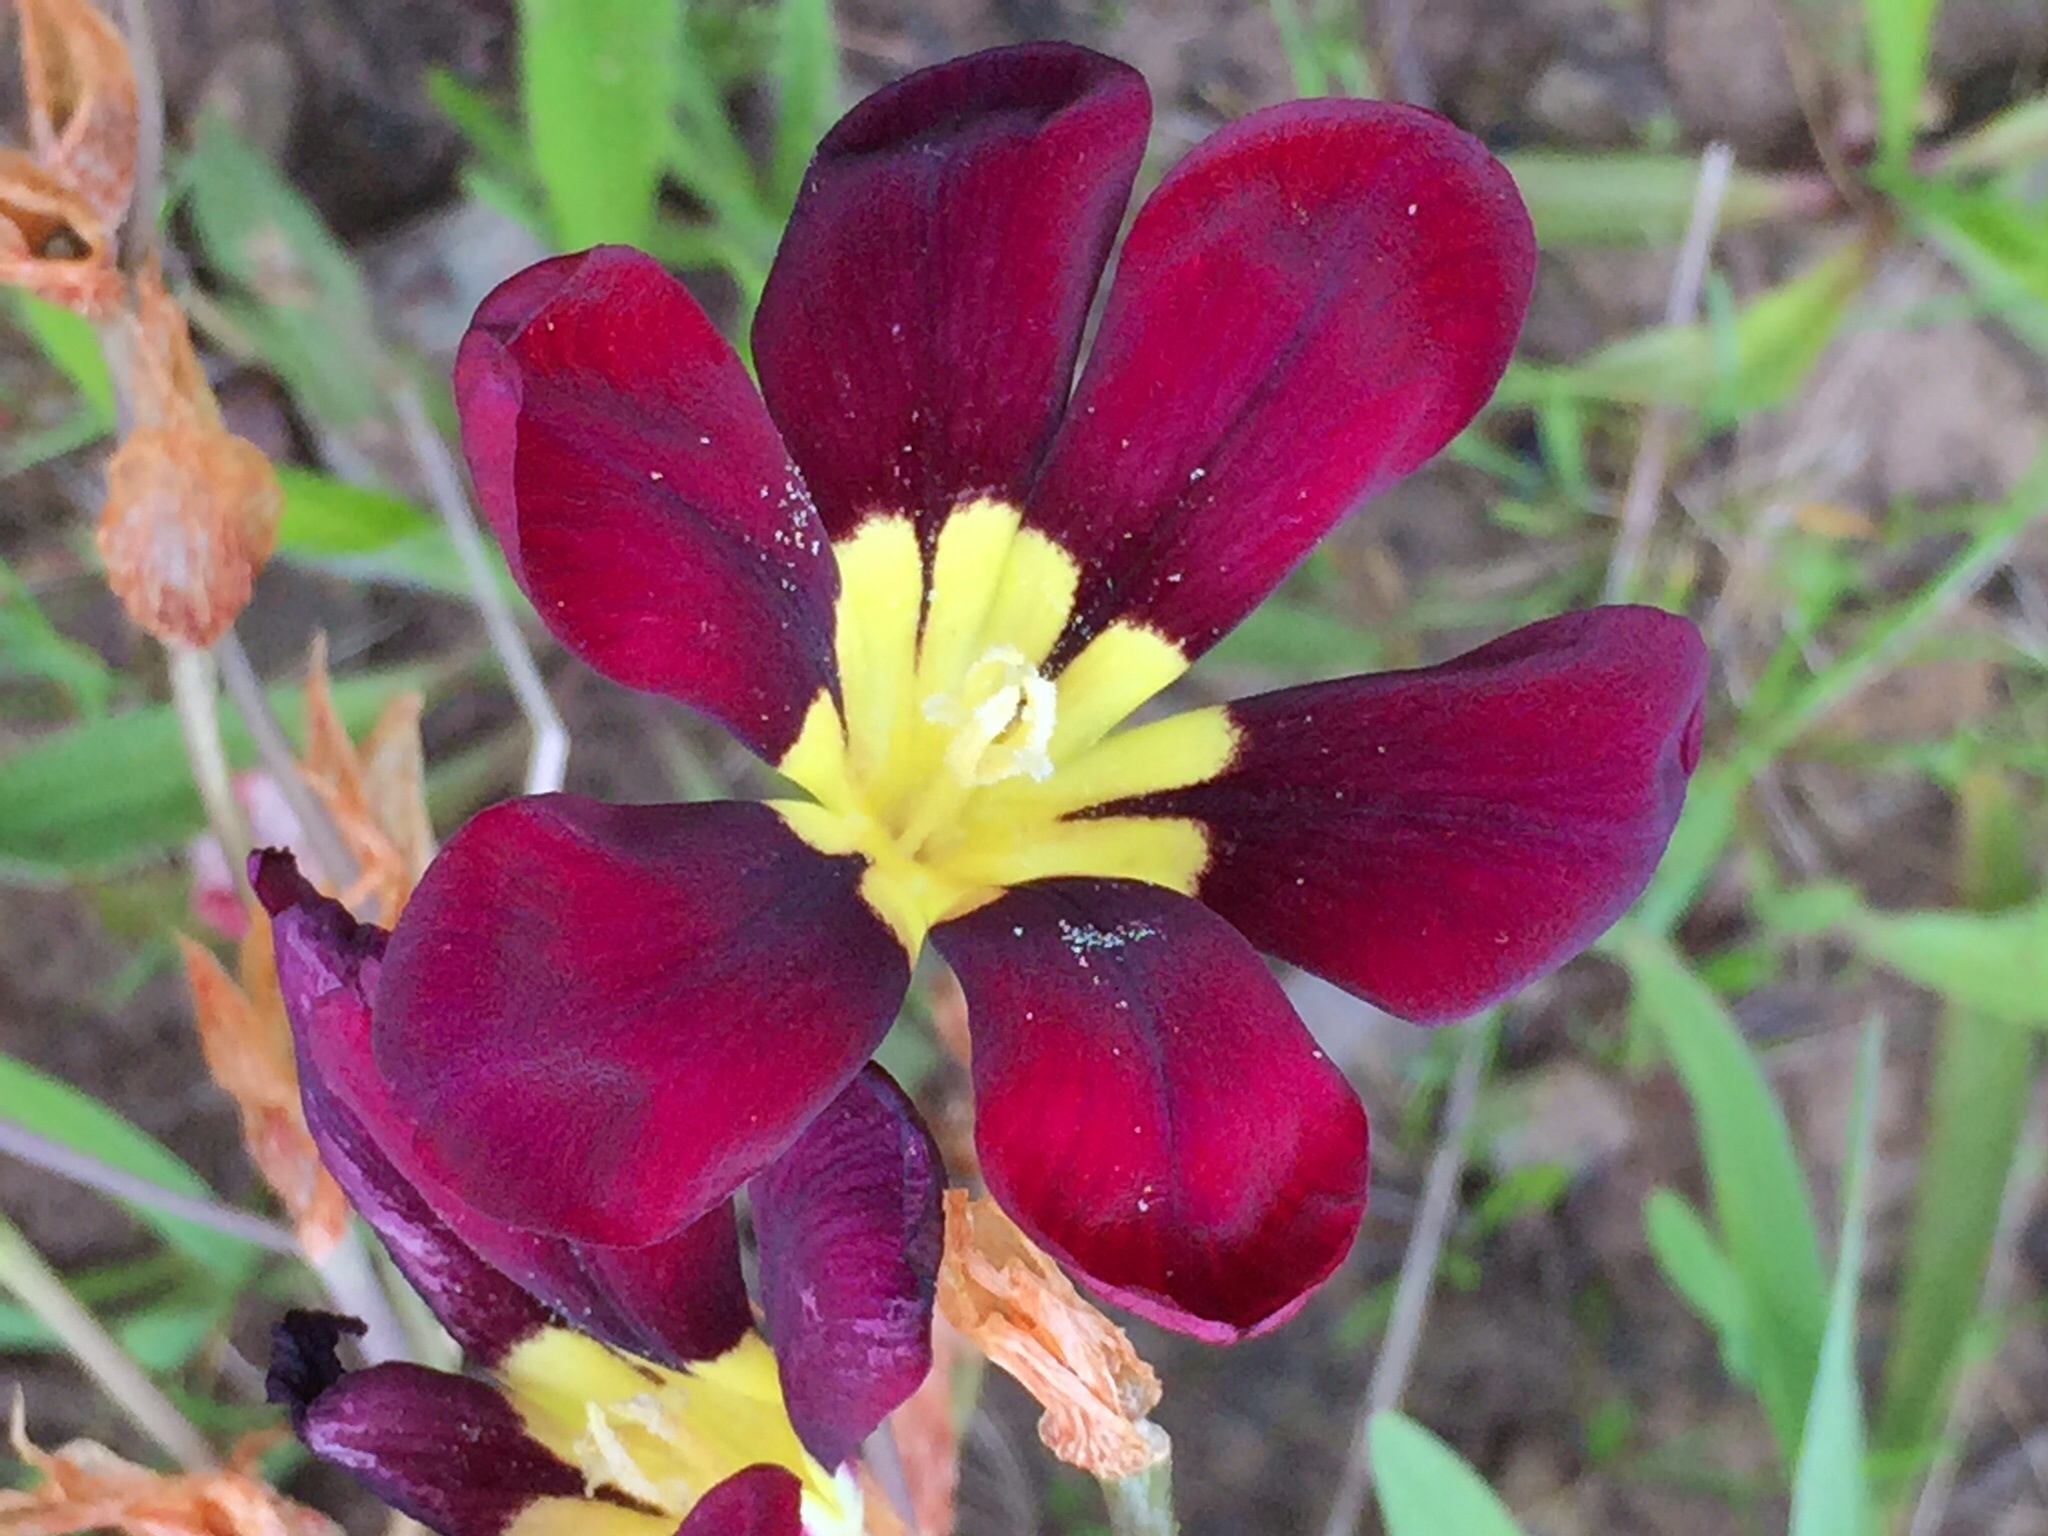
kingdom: Plantae
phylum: Tracheophyta
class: Liliopsida
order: Asparagales
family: Iridaceae
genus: Sparaxis
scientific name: Sparaxis tricolor
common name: Wandflower
